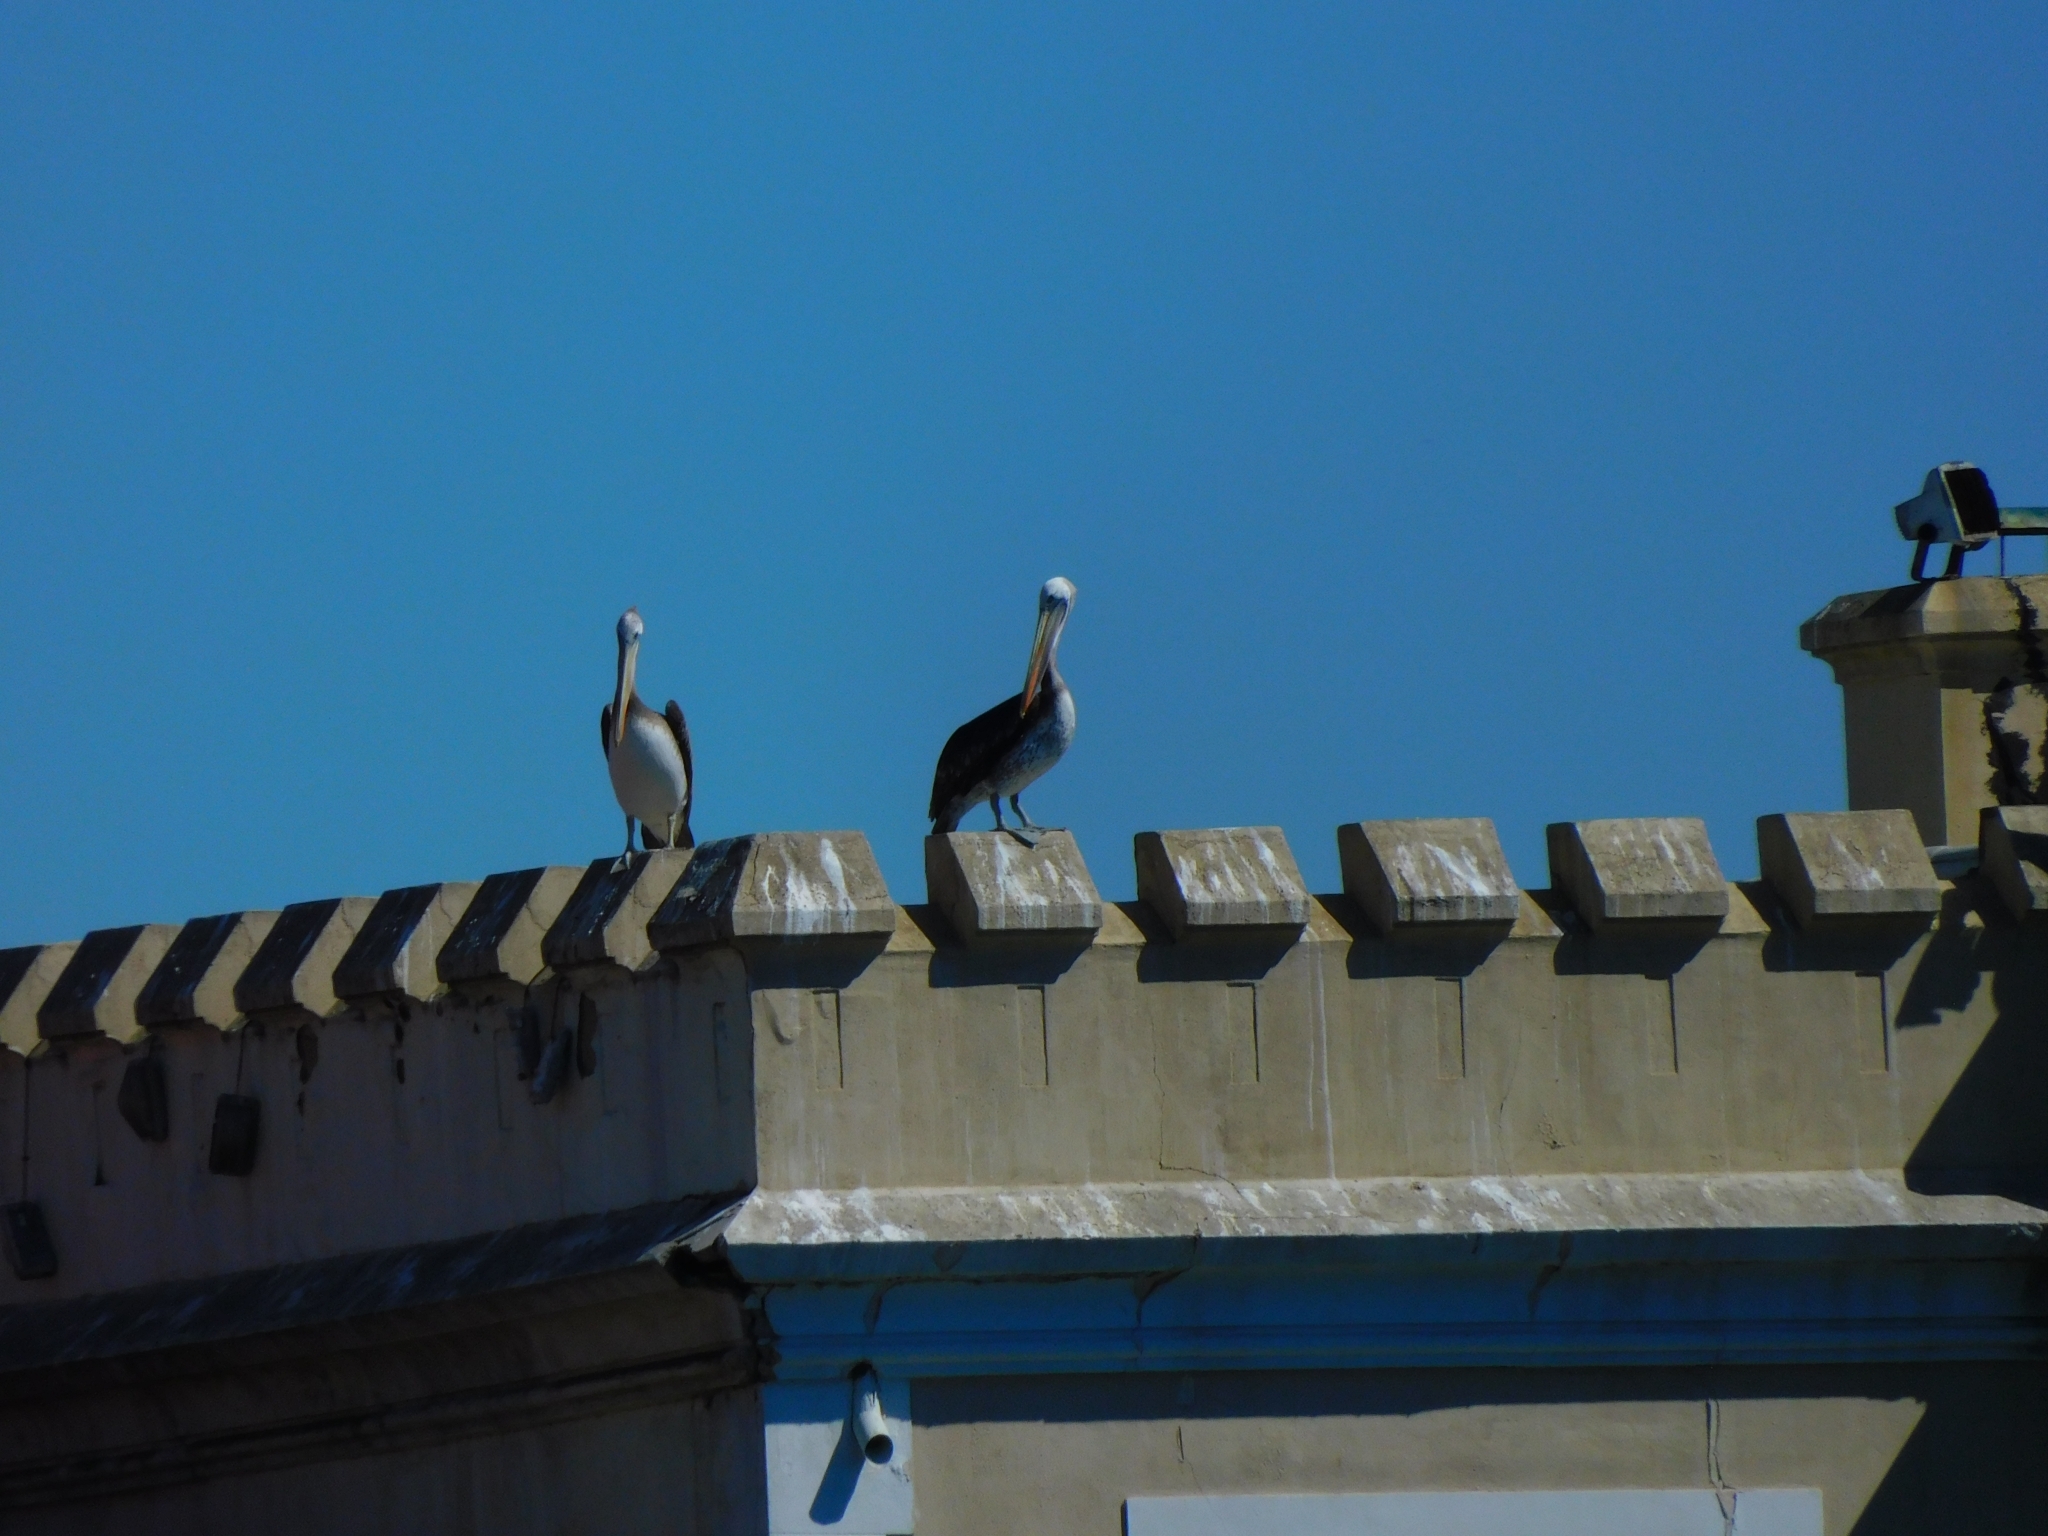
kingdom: Animalia
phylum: Chordata
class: Aves
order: Pelecaniformes
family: Pelecanidae
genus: Pelecanus
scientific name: Pelecanus thagus
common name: Peruvian pelican
